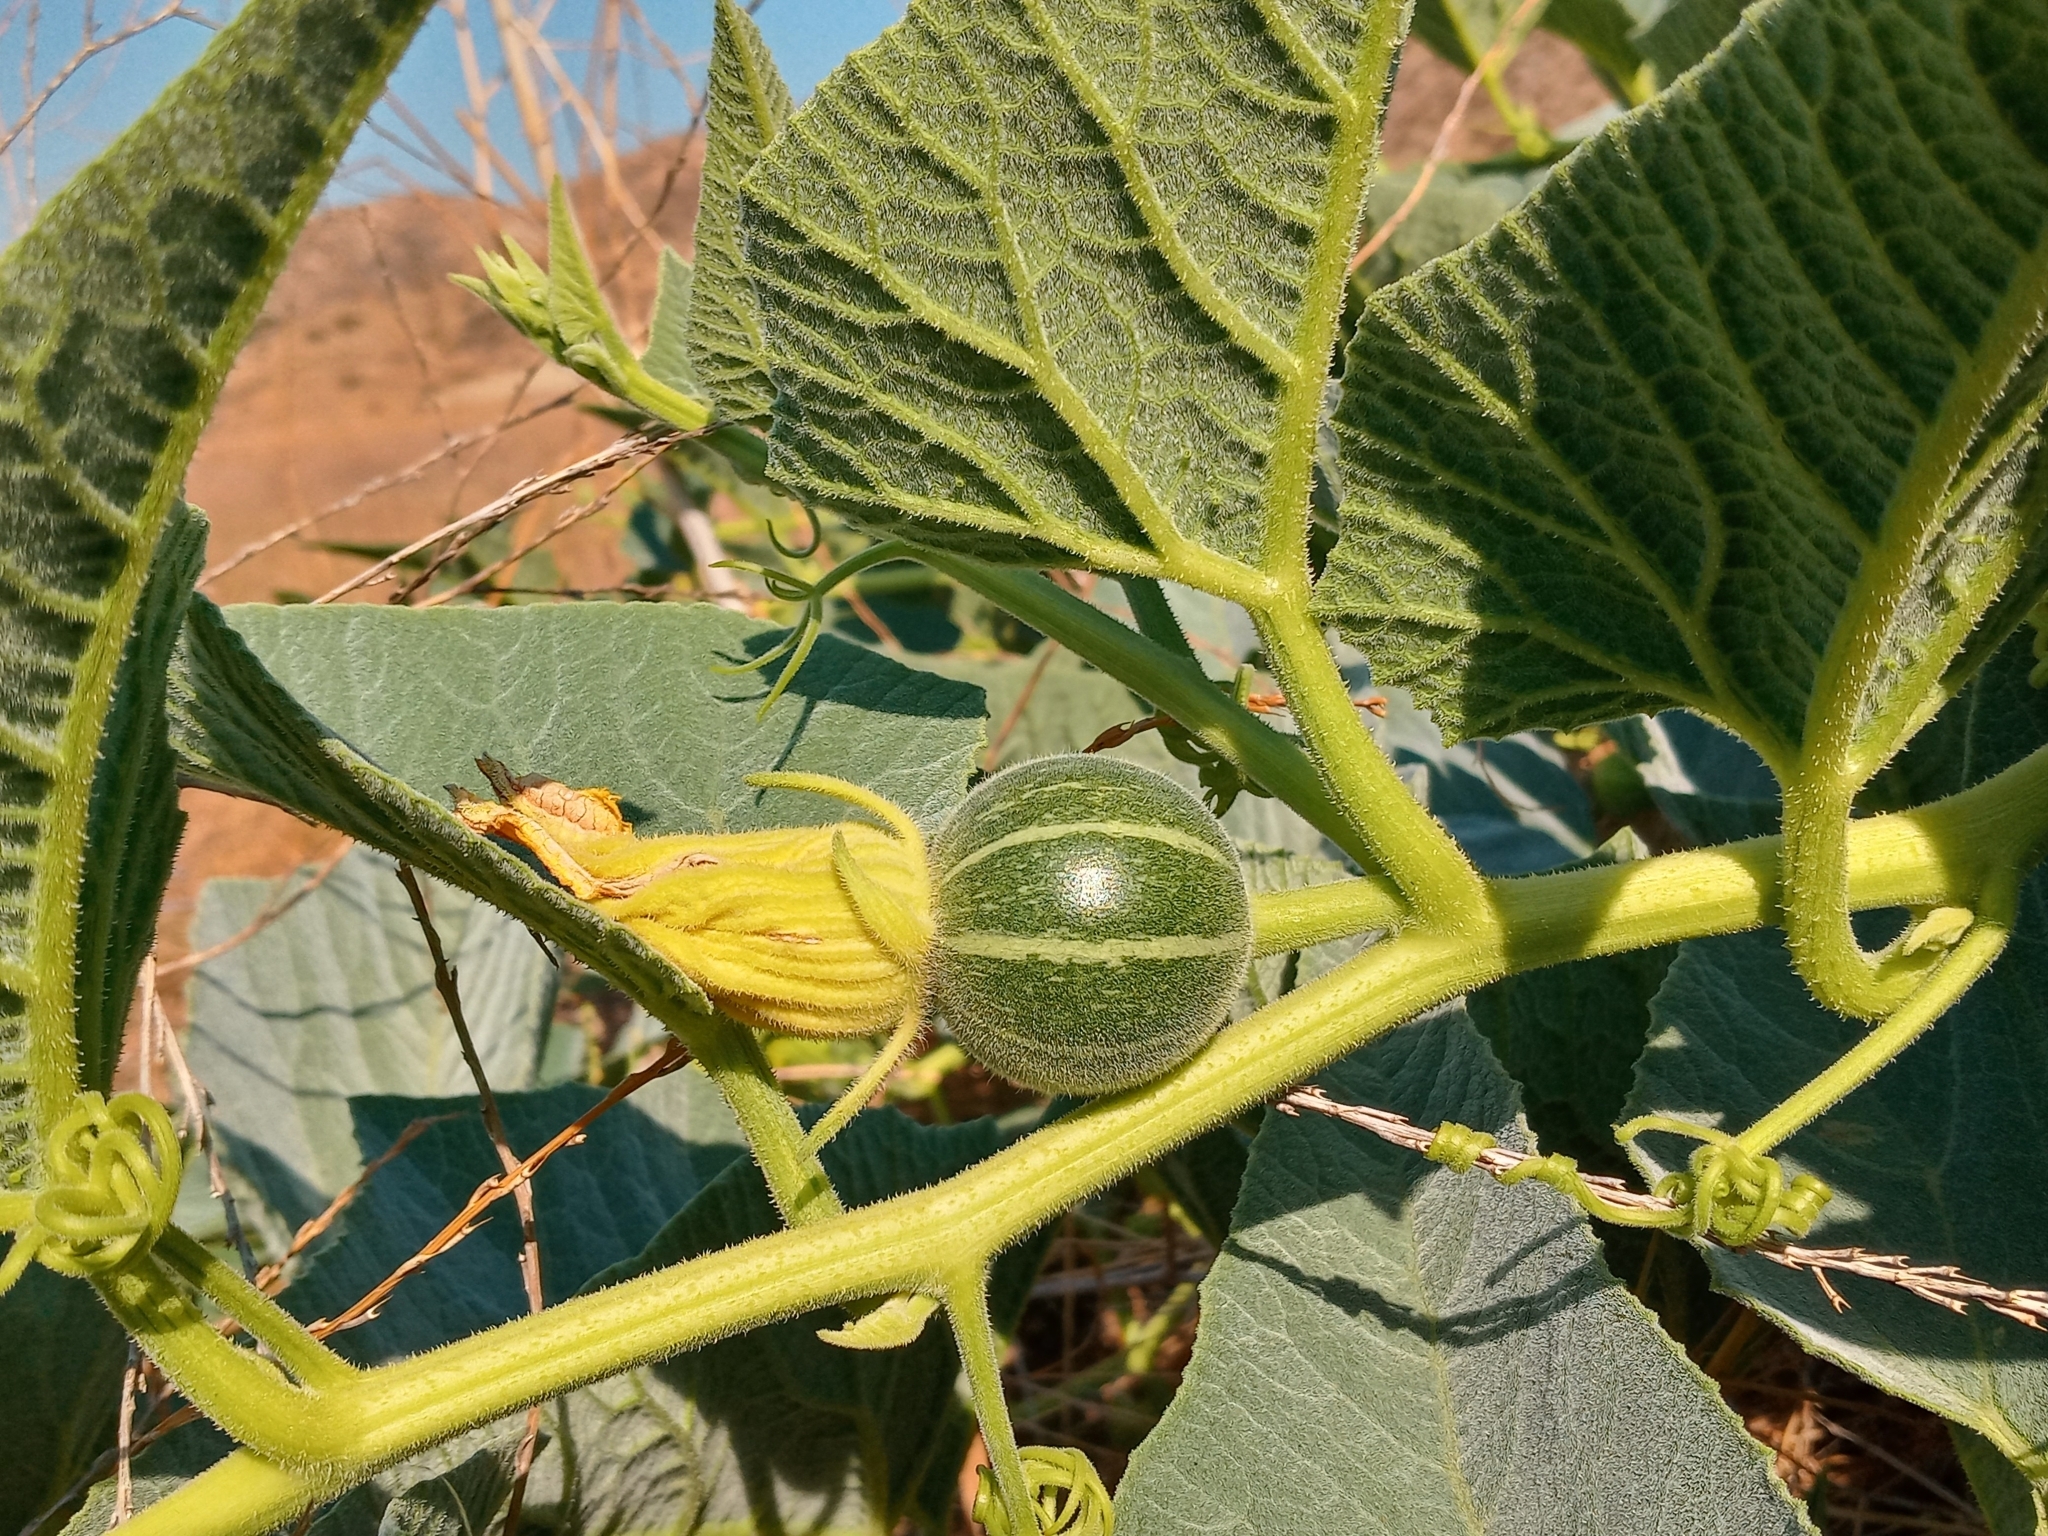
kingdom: Plantae
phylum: Tracheophyta
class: Magnoliopsida
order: Cucurbitales
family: Cucurbitaceae
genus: Cucurbita
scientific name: Cucurbita foetidissima
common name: Buffalo gourd
